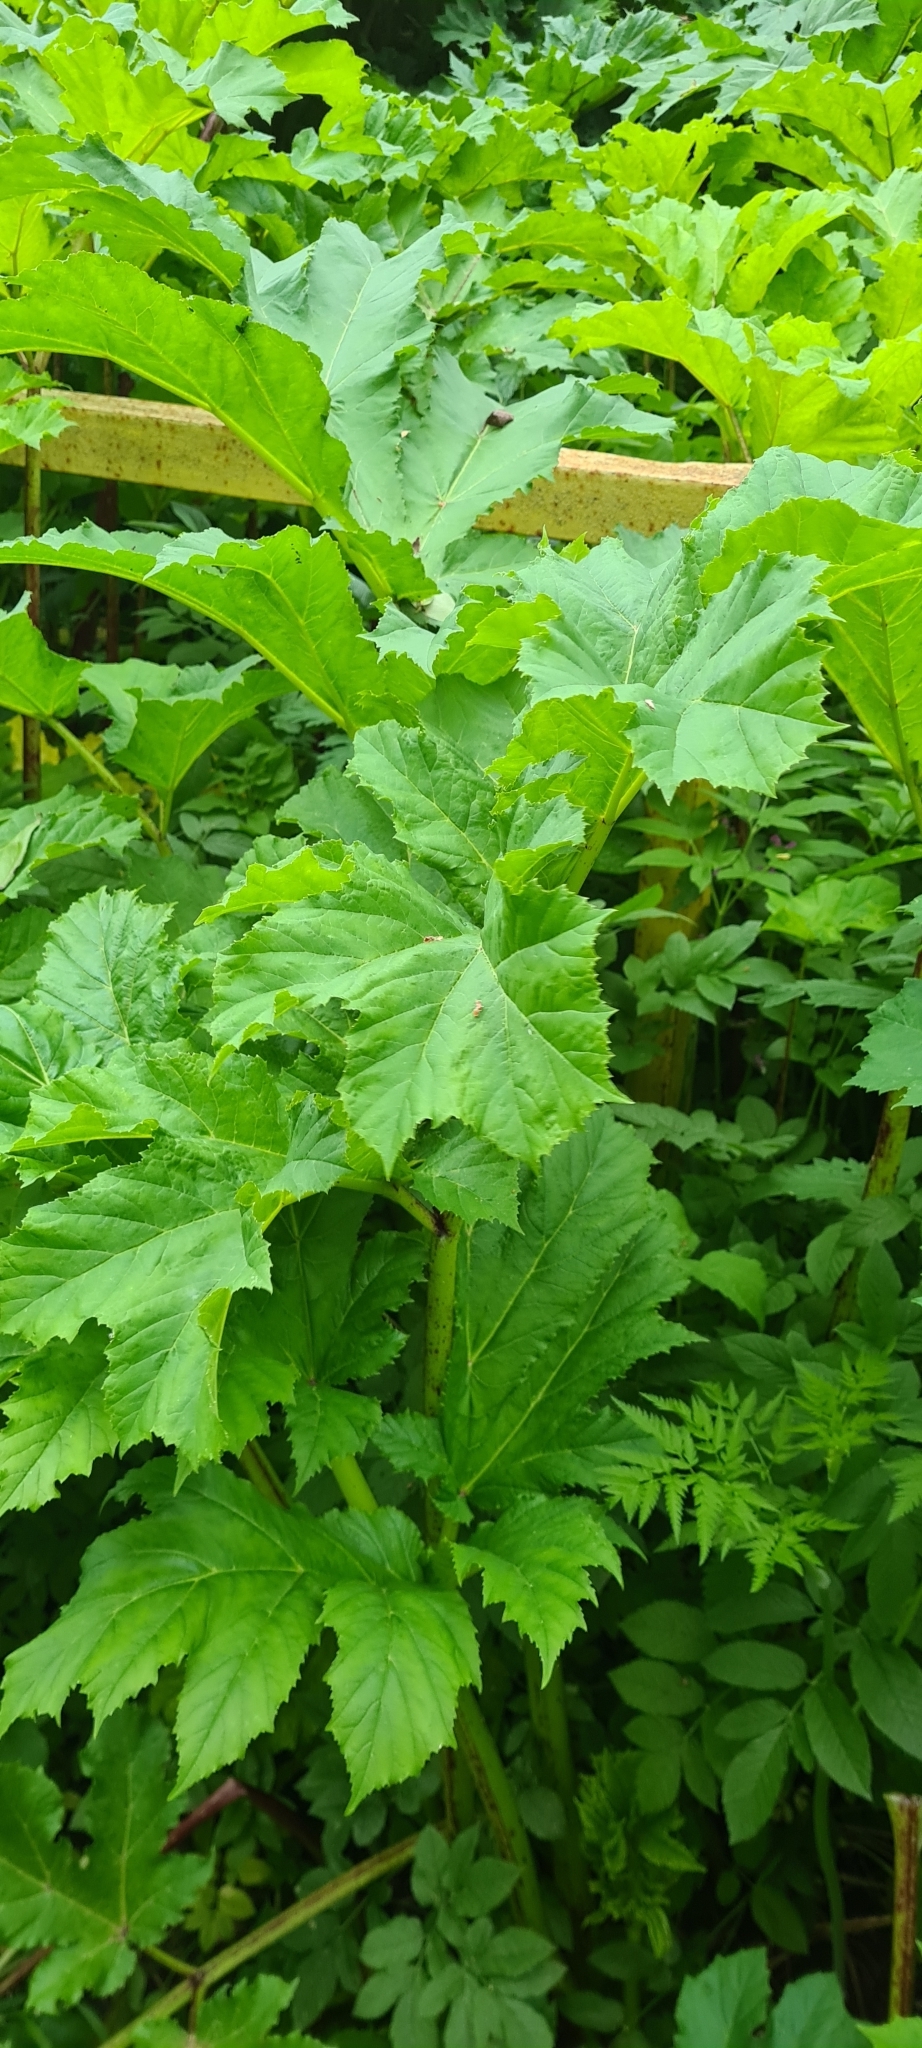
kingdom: Plantae
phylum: Tracheophyta
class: Magnoliopsida
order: Apiales
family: Apiaceae
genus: Heracleum
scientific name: Heracleum sosnowskyi
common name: Sosnowsky's hogweed
